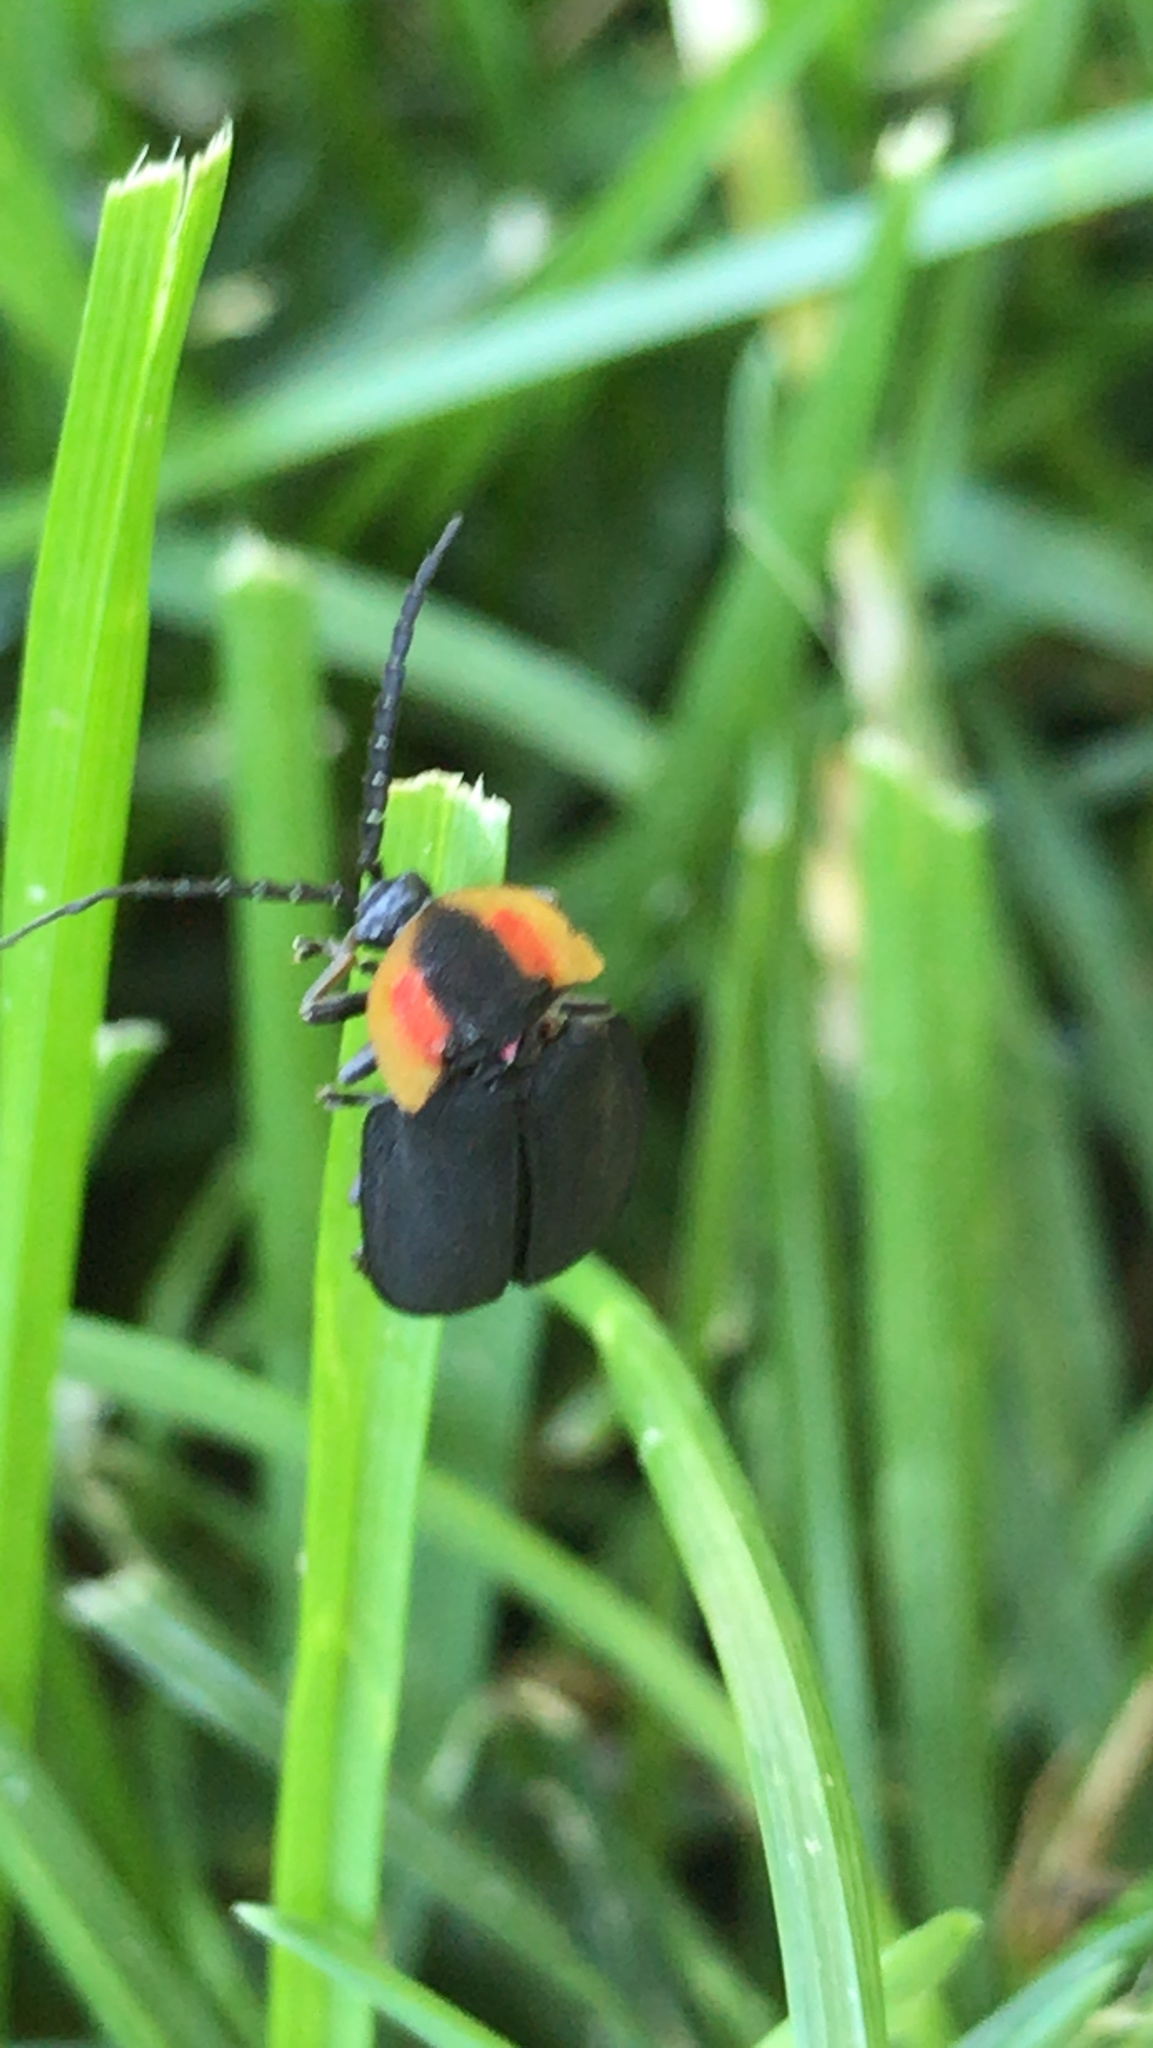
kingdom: Animalia
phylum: Arthropoda
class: Insecta
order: Coleoptera
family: Lampyridae
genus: Lucidota
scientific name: Lucidota atra
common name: Black firefly
